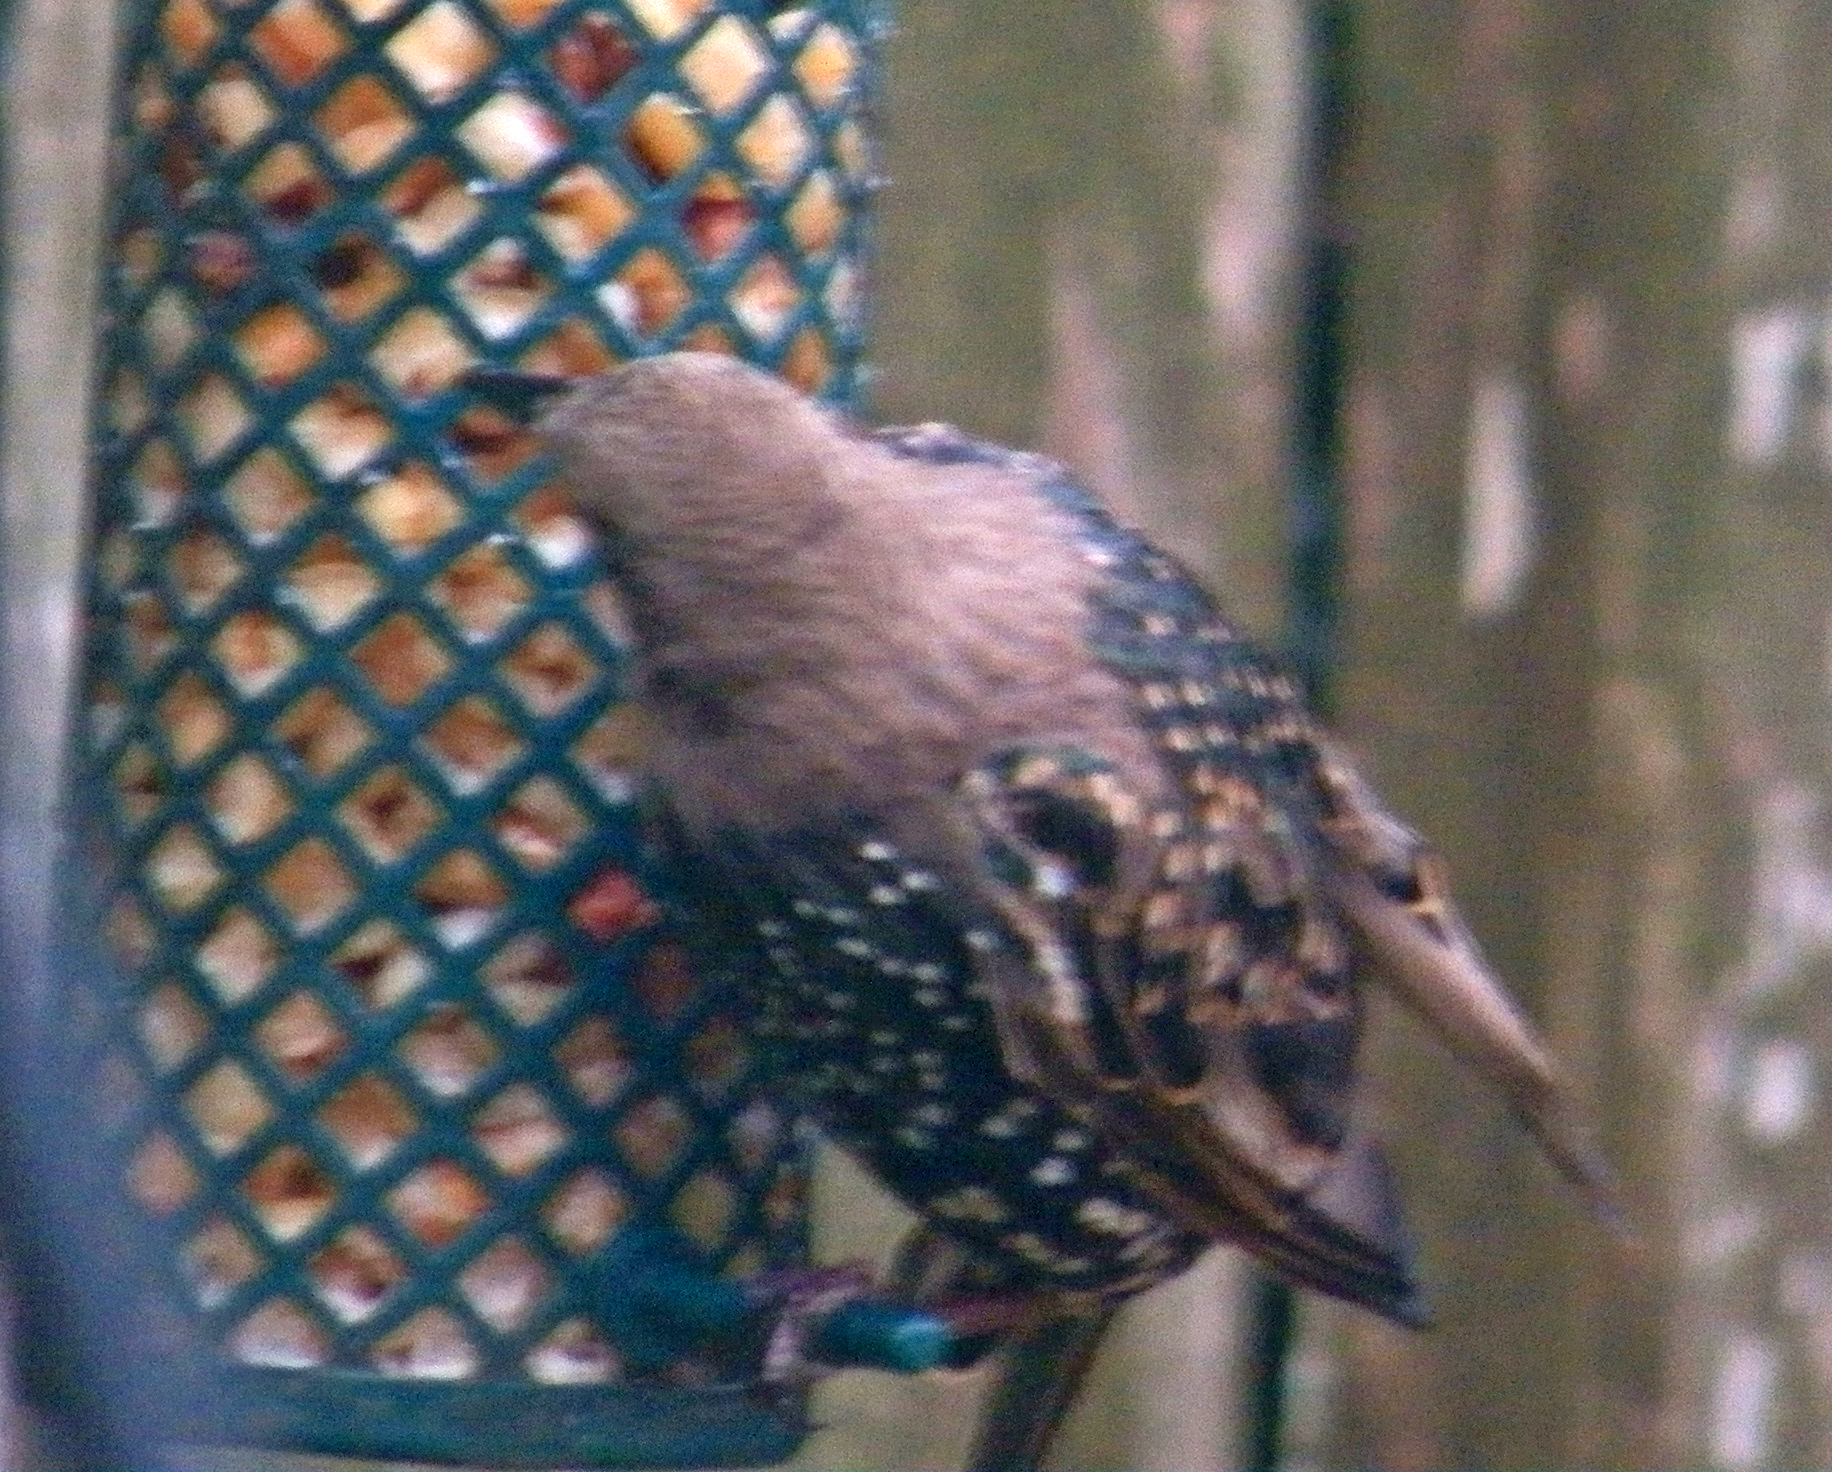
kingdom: Animalia
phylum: Chordata
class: Aves
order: Passeriformes
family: Sturnidae
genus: Sturnus
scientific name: Sturnus vulgaris
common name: Common starling
